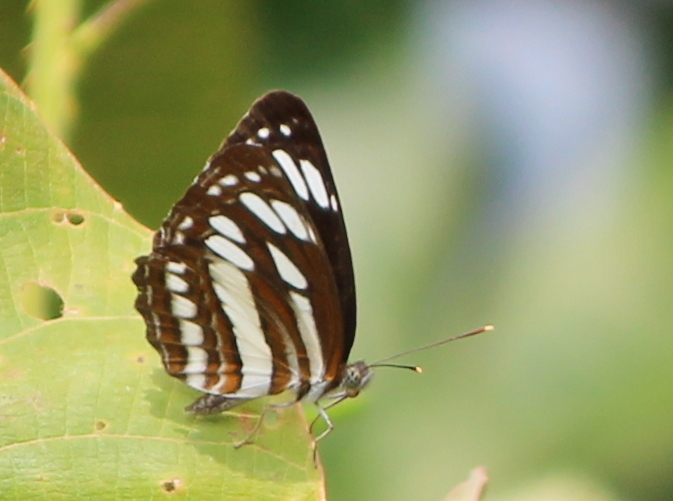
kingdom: Animalia
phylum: Arthropoda
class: Insecta
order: Lepidoptera
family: Nymphalidae
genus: Neptis
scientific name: Neptis hylas
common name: Common sailer
